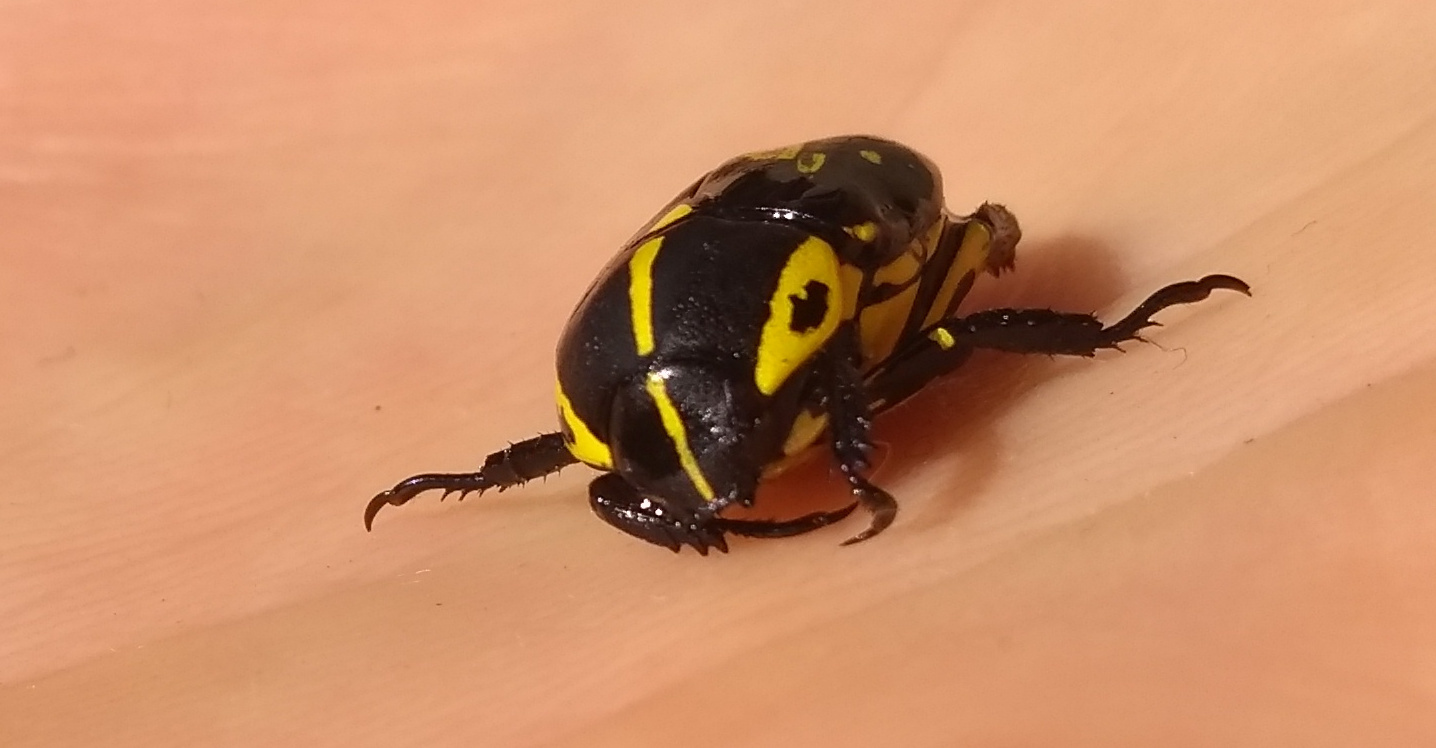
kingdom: Animalia
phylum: Arthropoda
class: Insecta
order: Coleoptera
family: Scarabaeidae
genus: Rutela
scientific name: Rutela lineola
